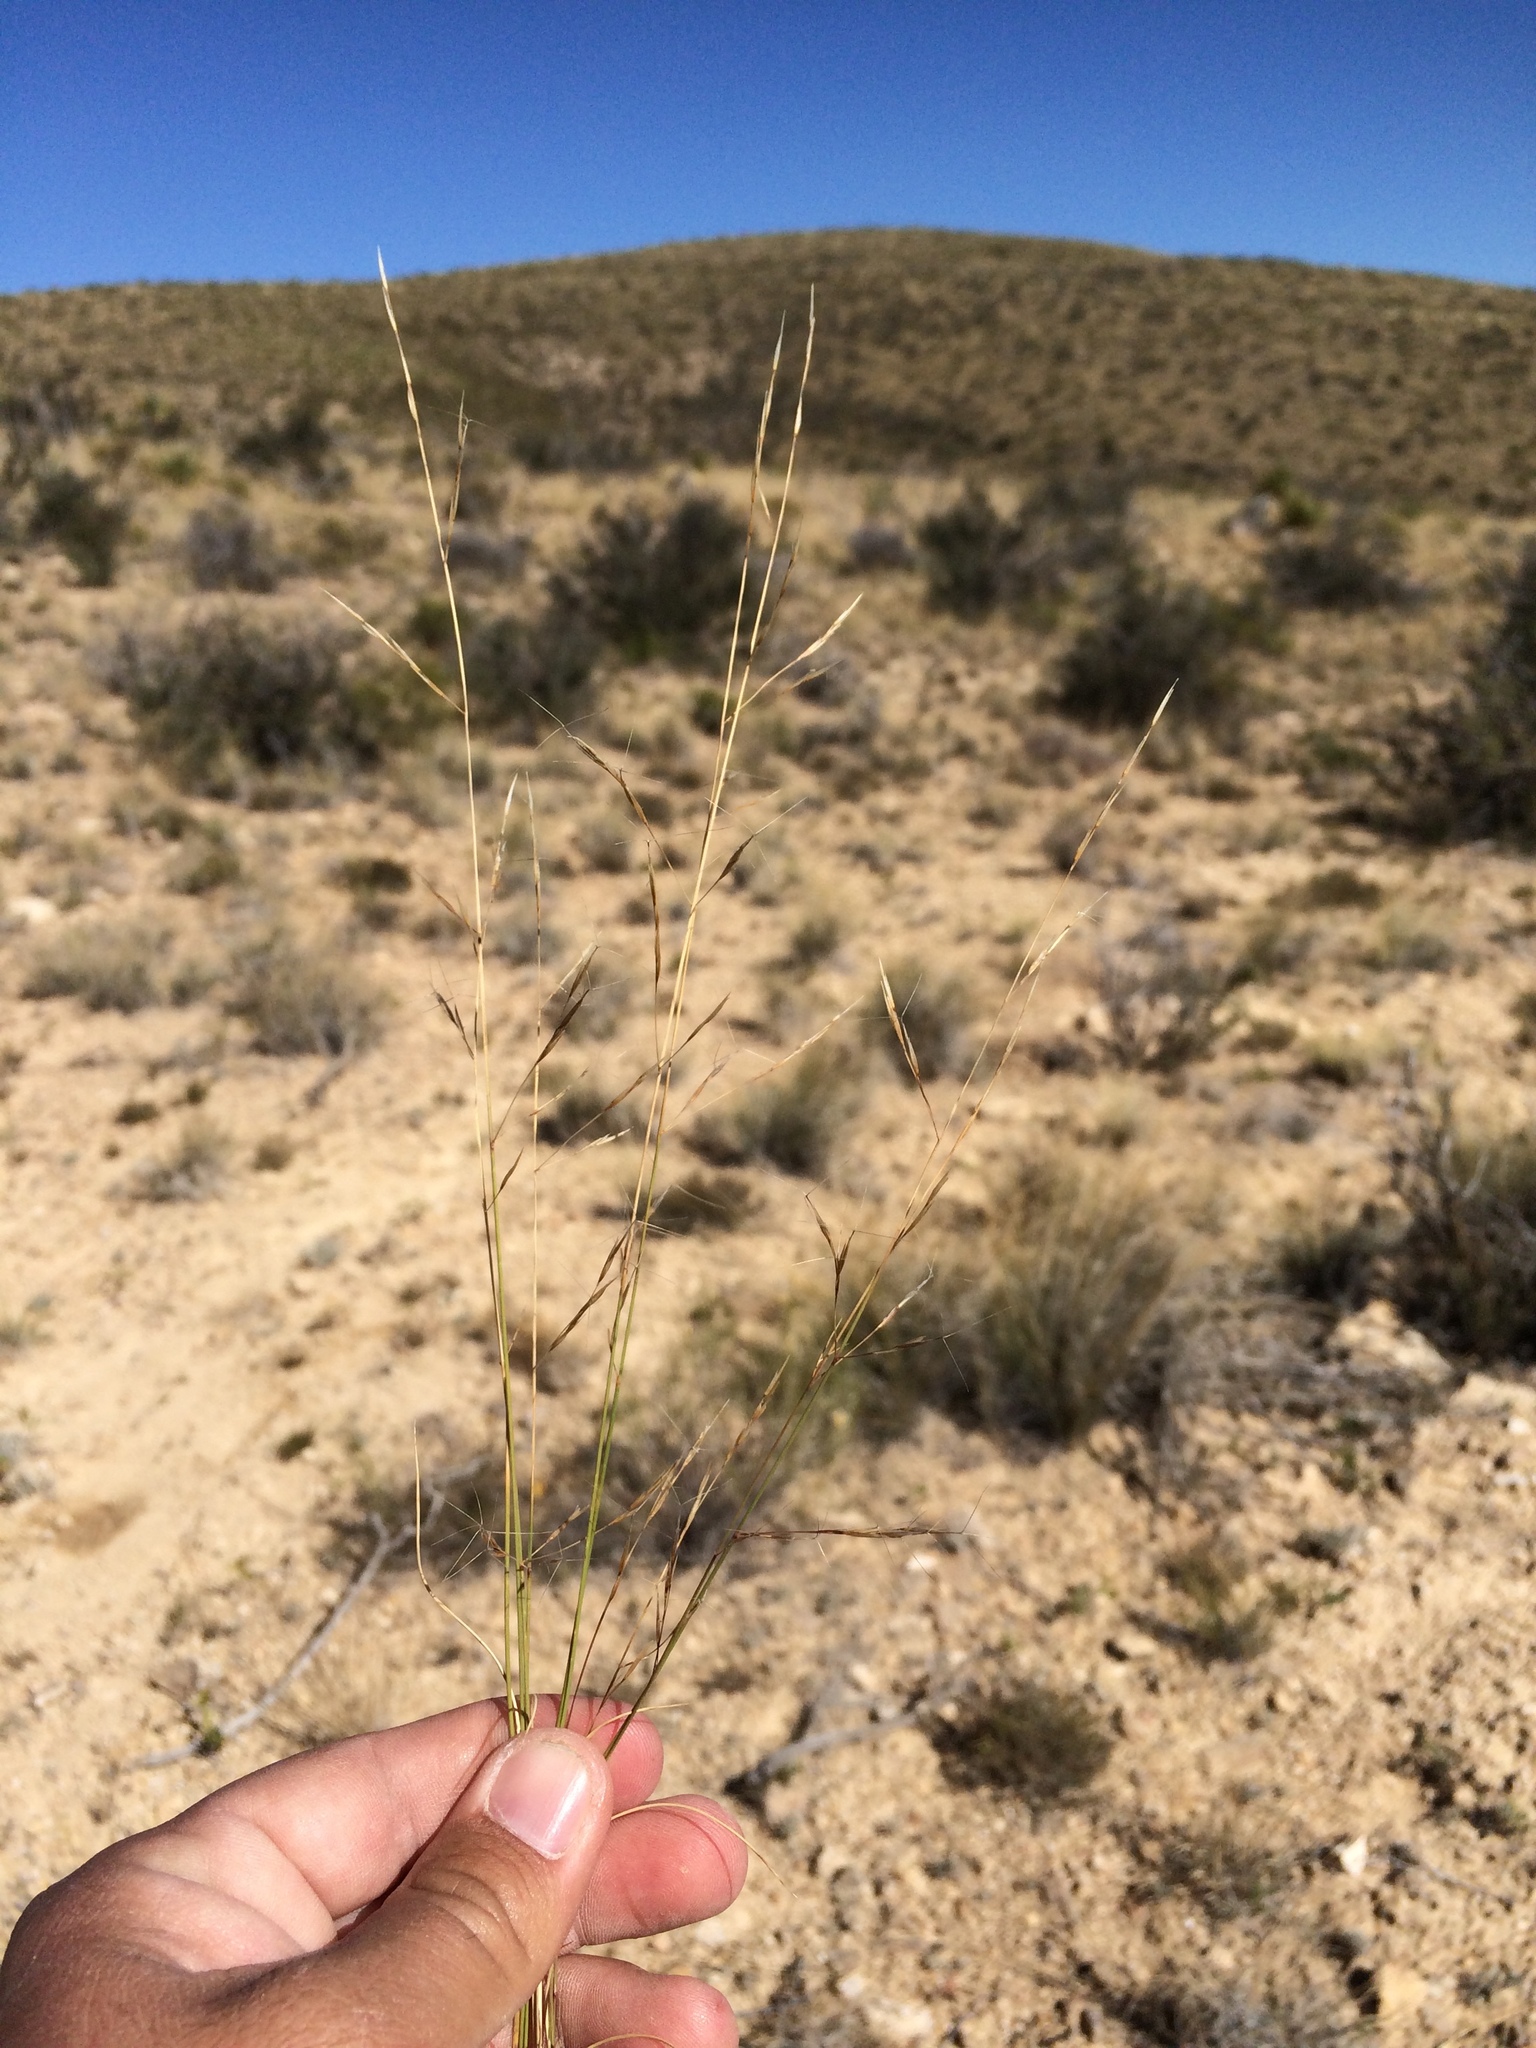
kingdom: Plantae
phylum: Tracheophyta
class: Liliopsida
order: Poales
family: Poaceae
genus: Aristida
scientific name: Aristida divaricata
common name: Poverty grass
